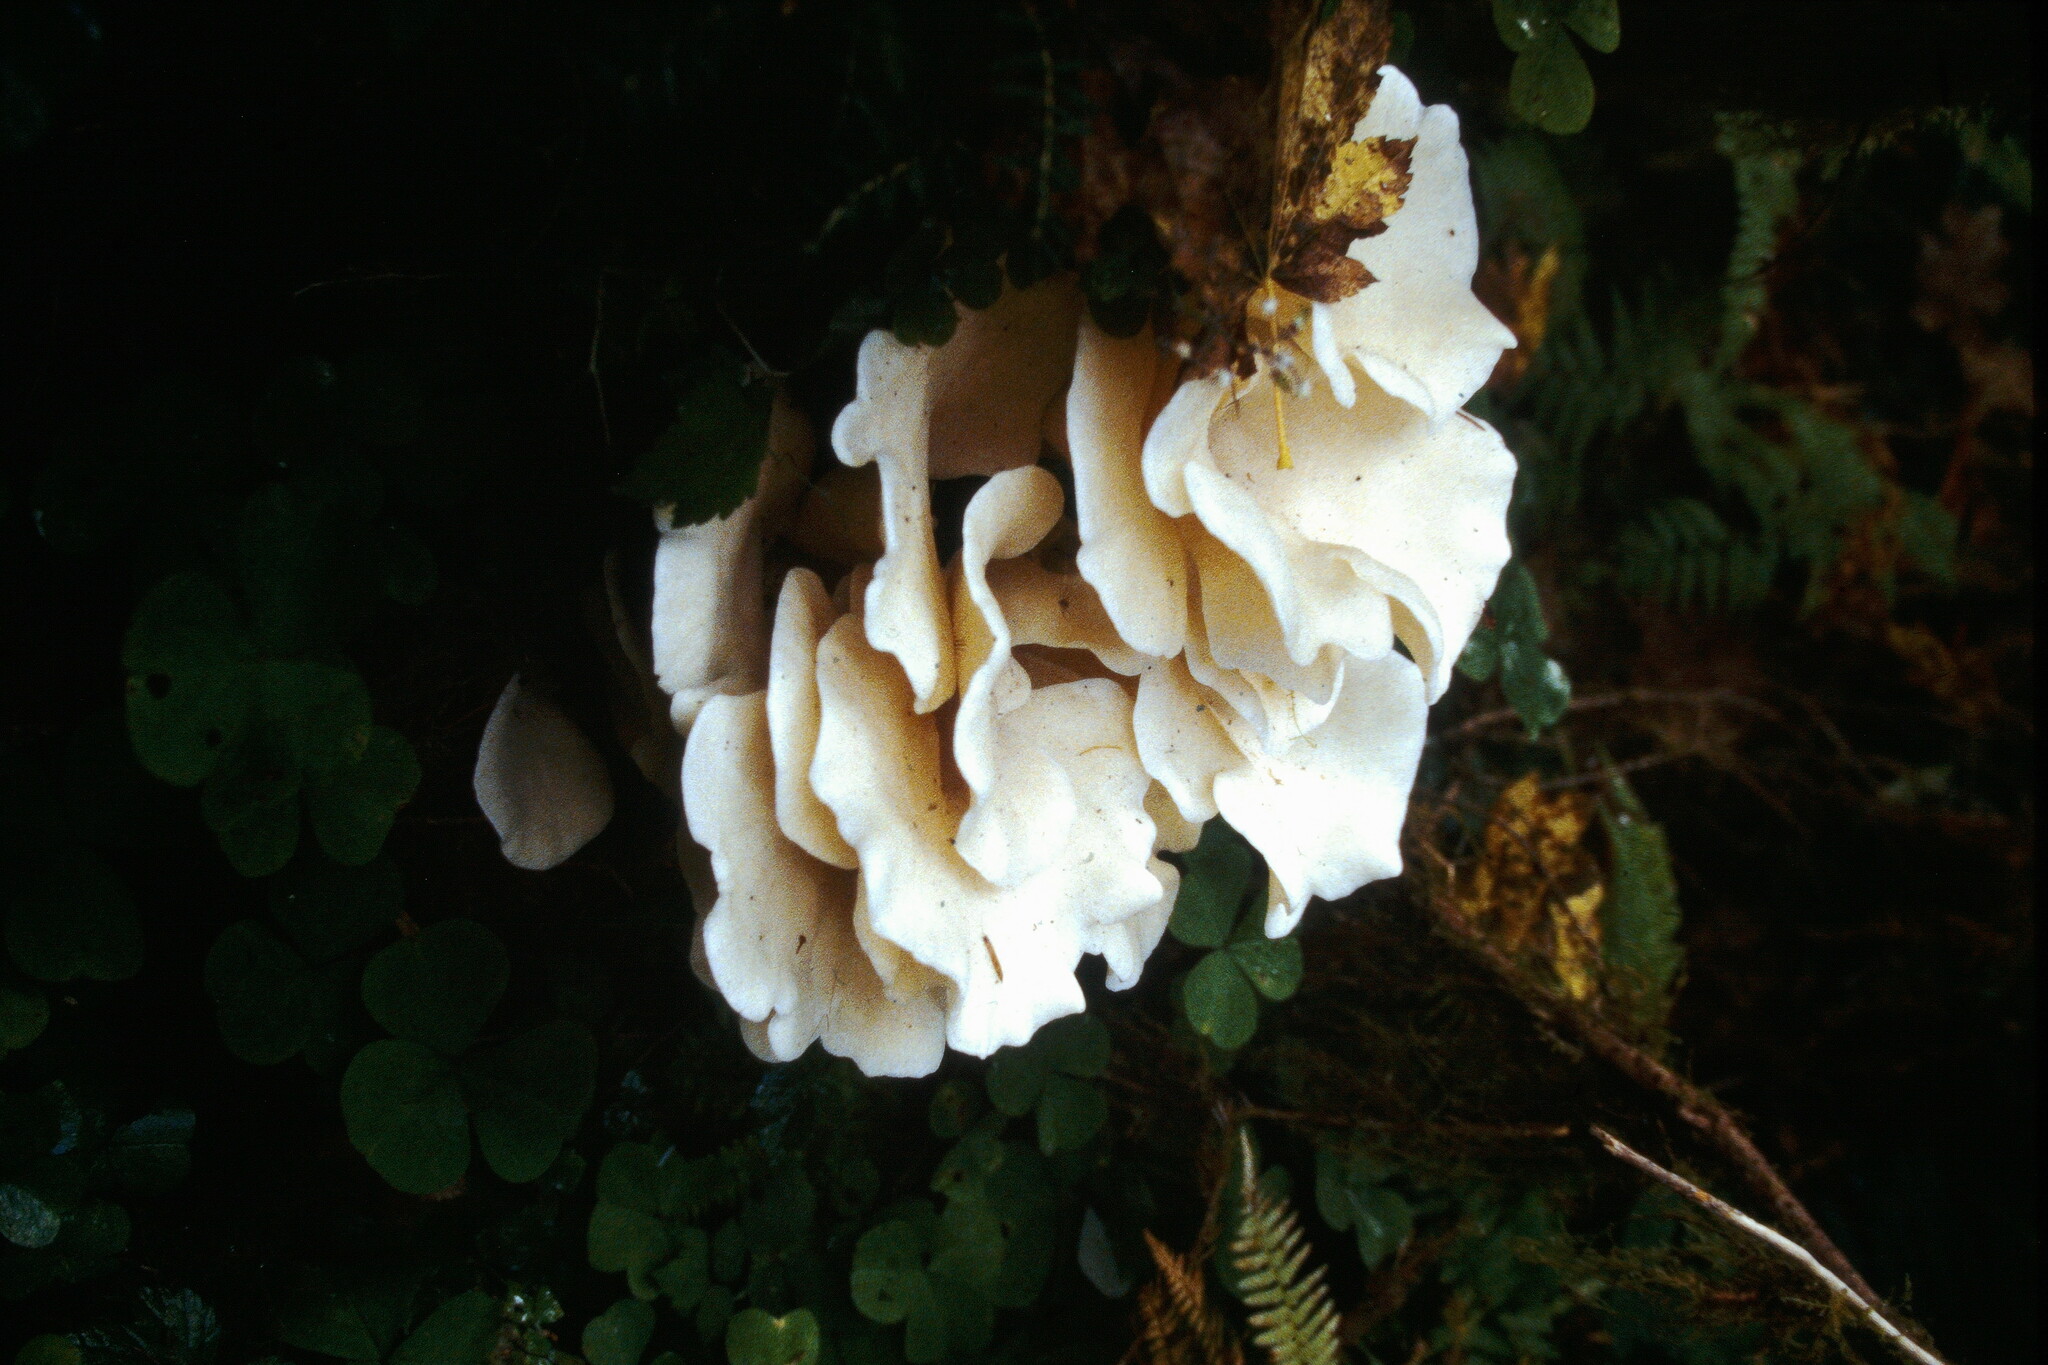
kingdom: Fungi
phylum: Basidiomycota
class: Agaricomycetes
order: Agaricales
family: Marasmiaceae
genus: Pleurocybella
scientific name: Pleurocybella porrigens
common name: Angel's wings
